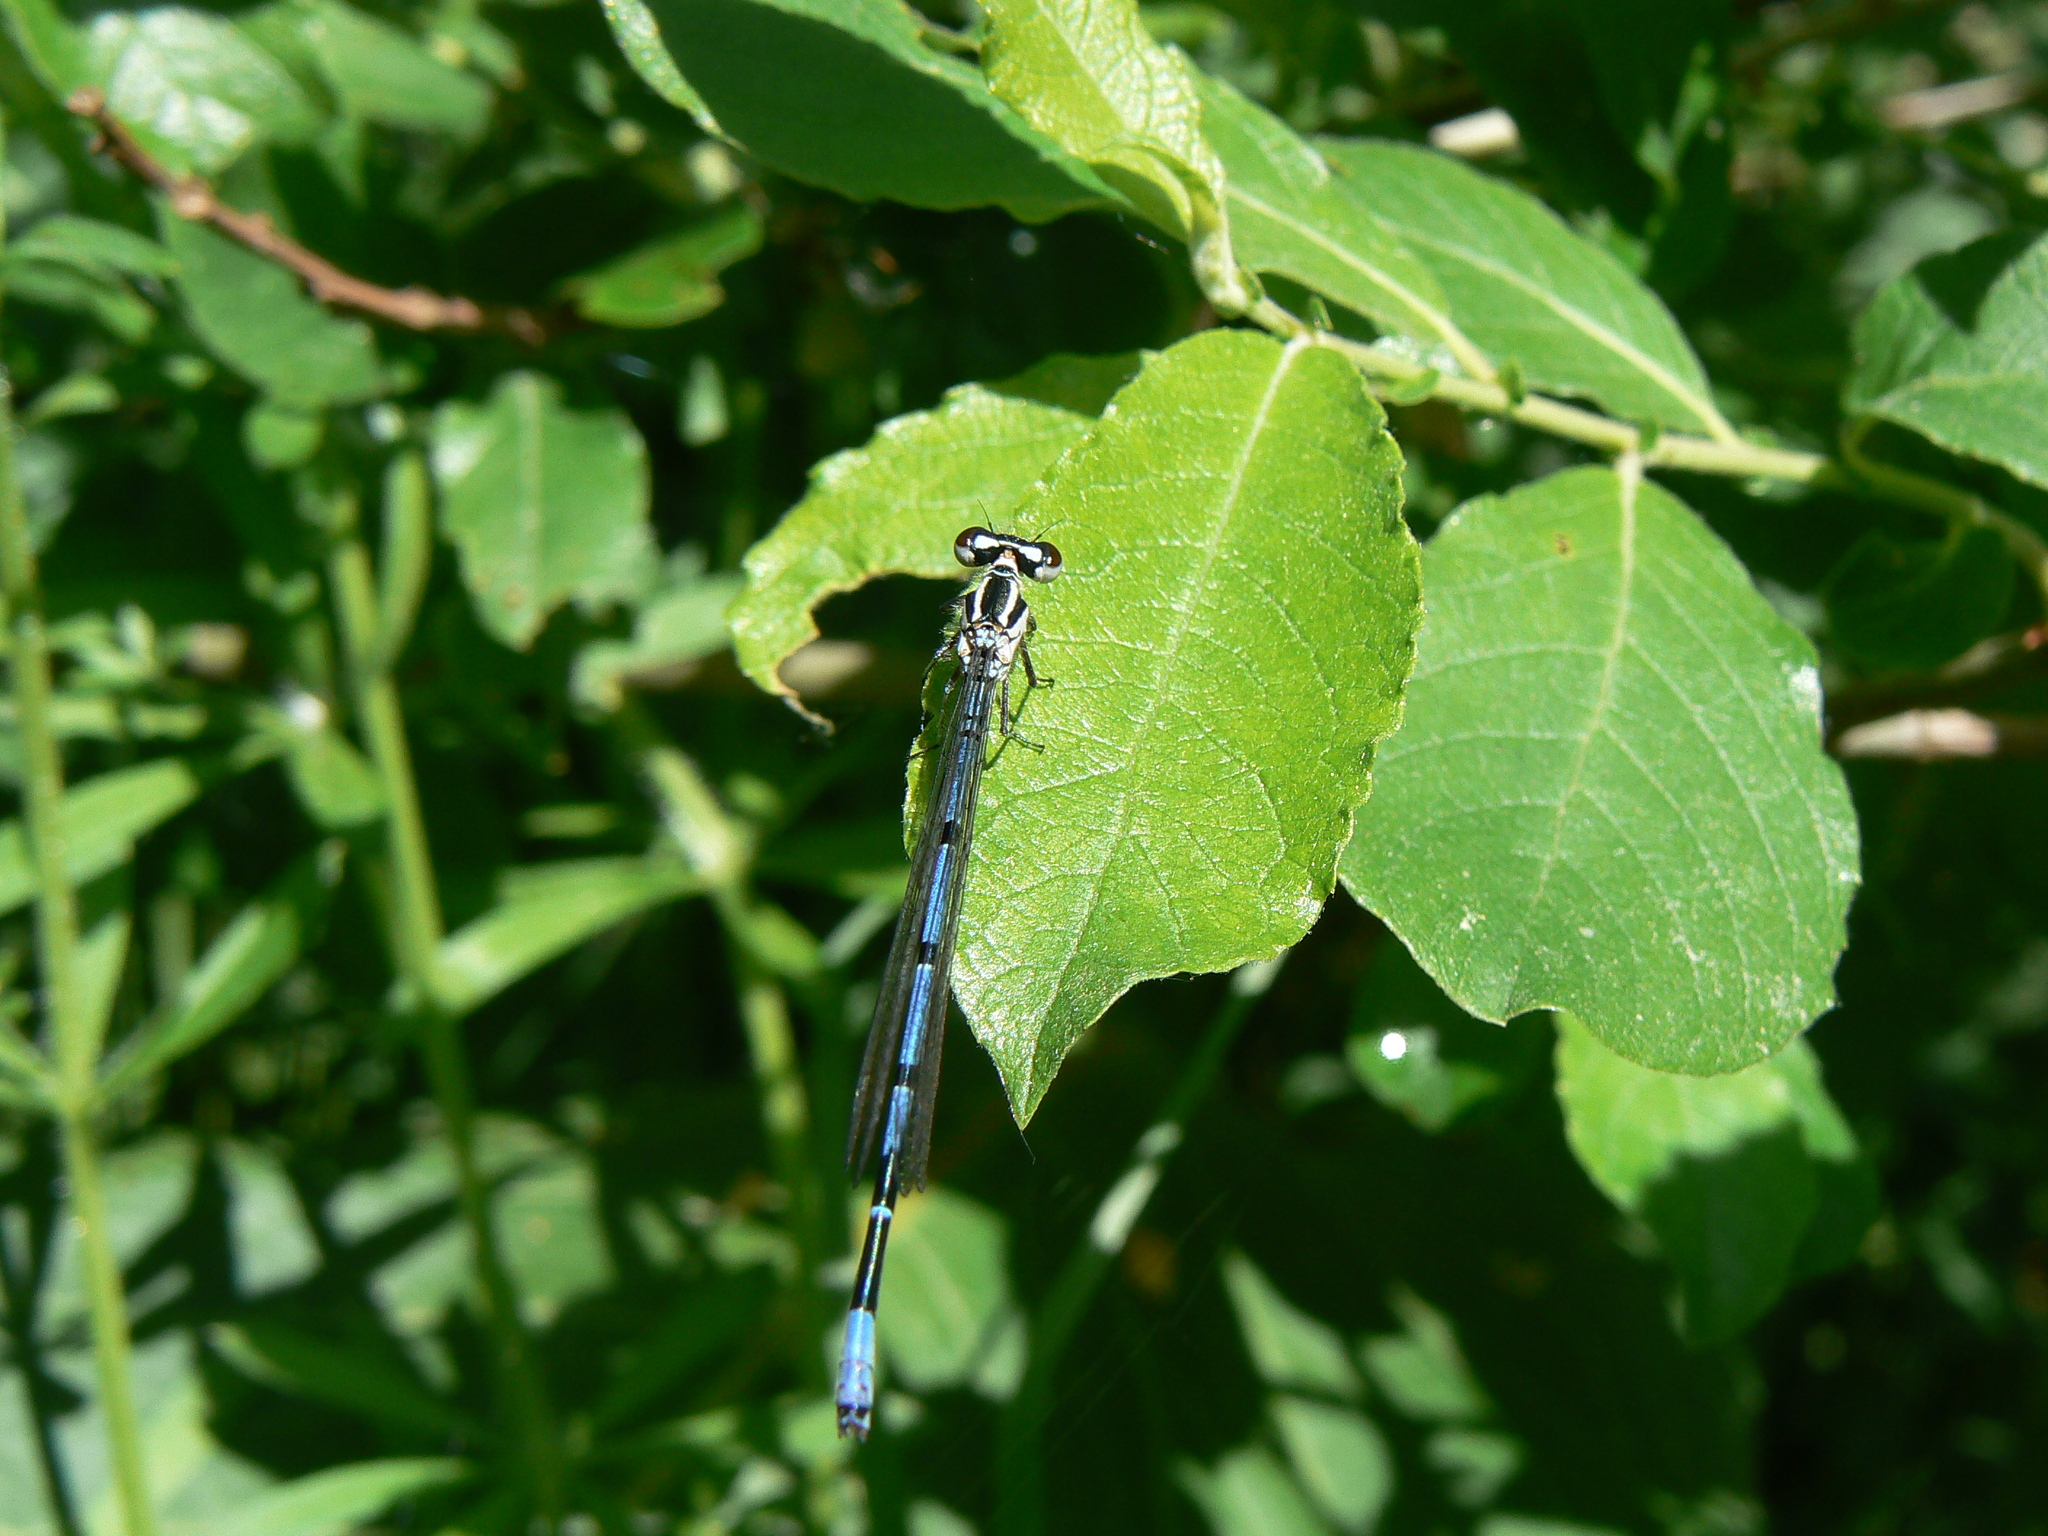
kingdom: Animalia
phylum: Arthropoda
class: Insecta
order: Odonata
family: Coenagrionidae
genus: Coenagrion
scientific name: Coenagrion puella
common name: Azure damselfly
